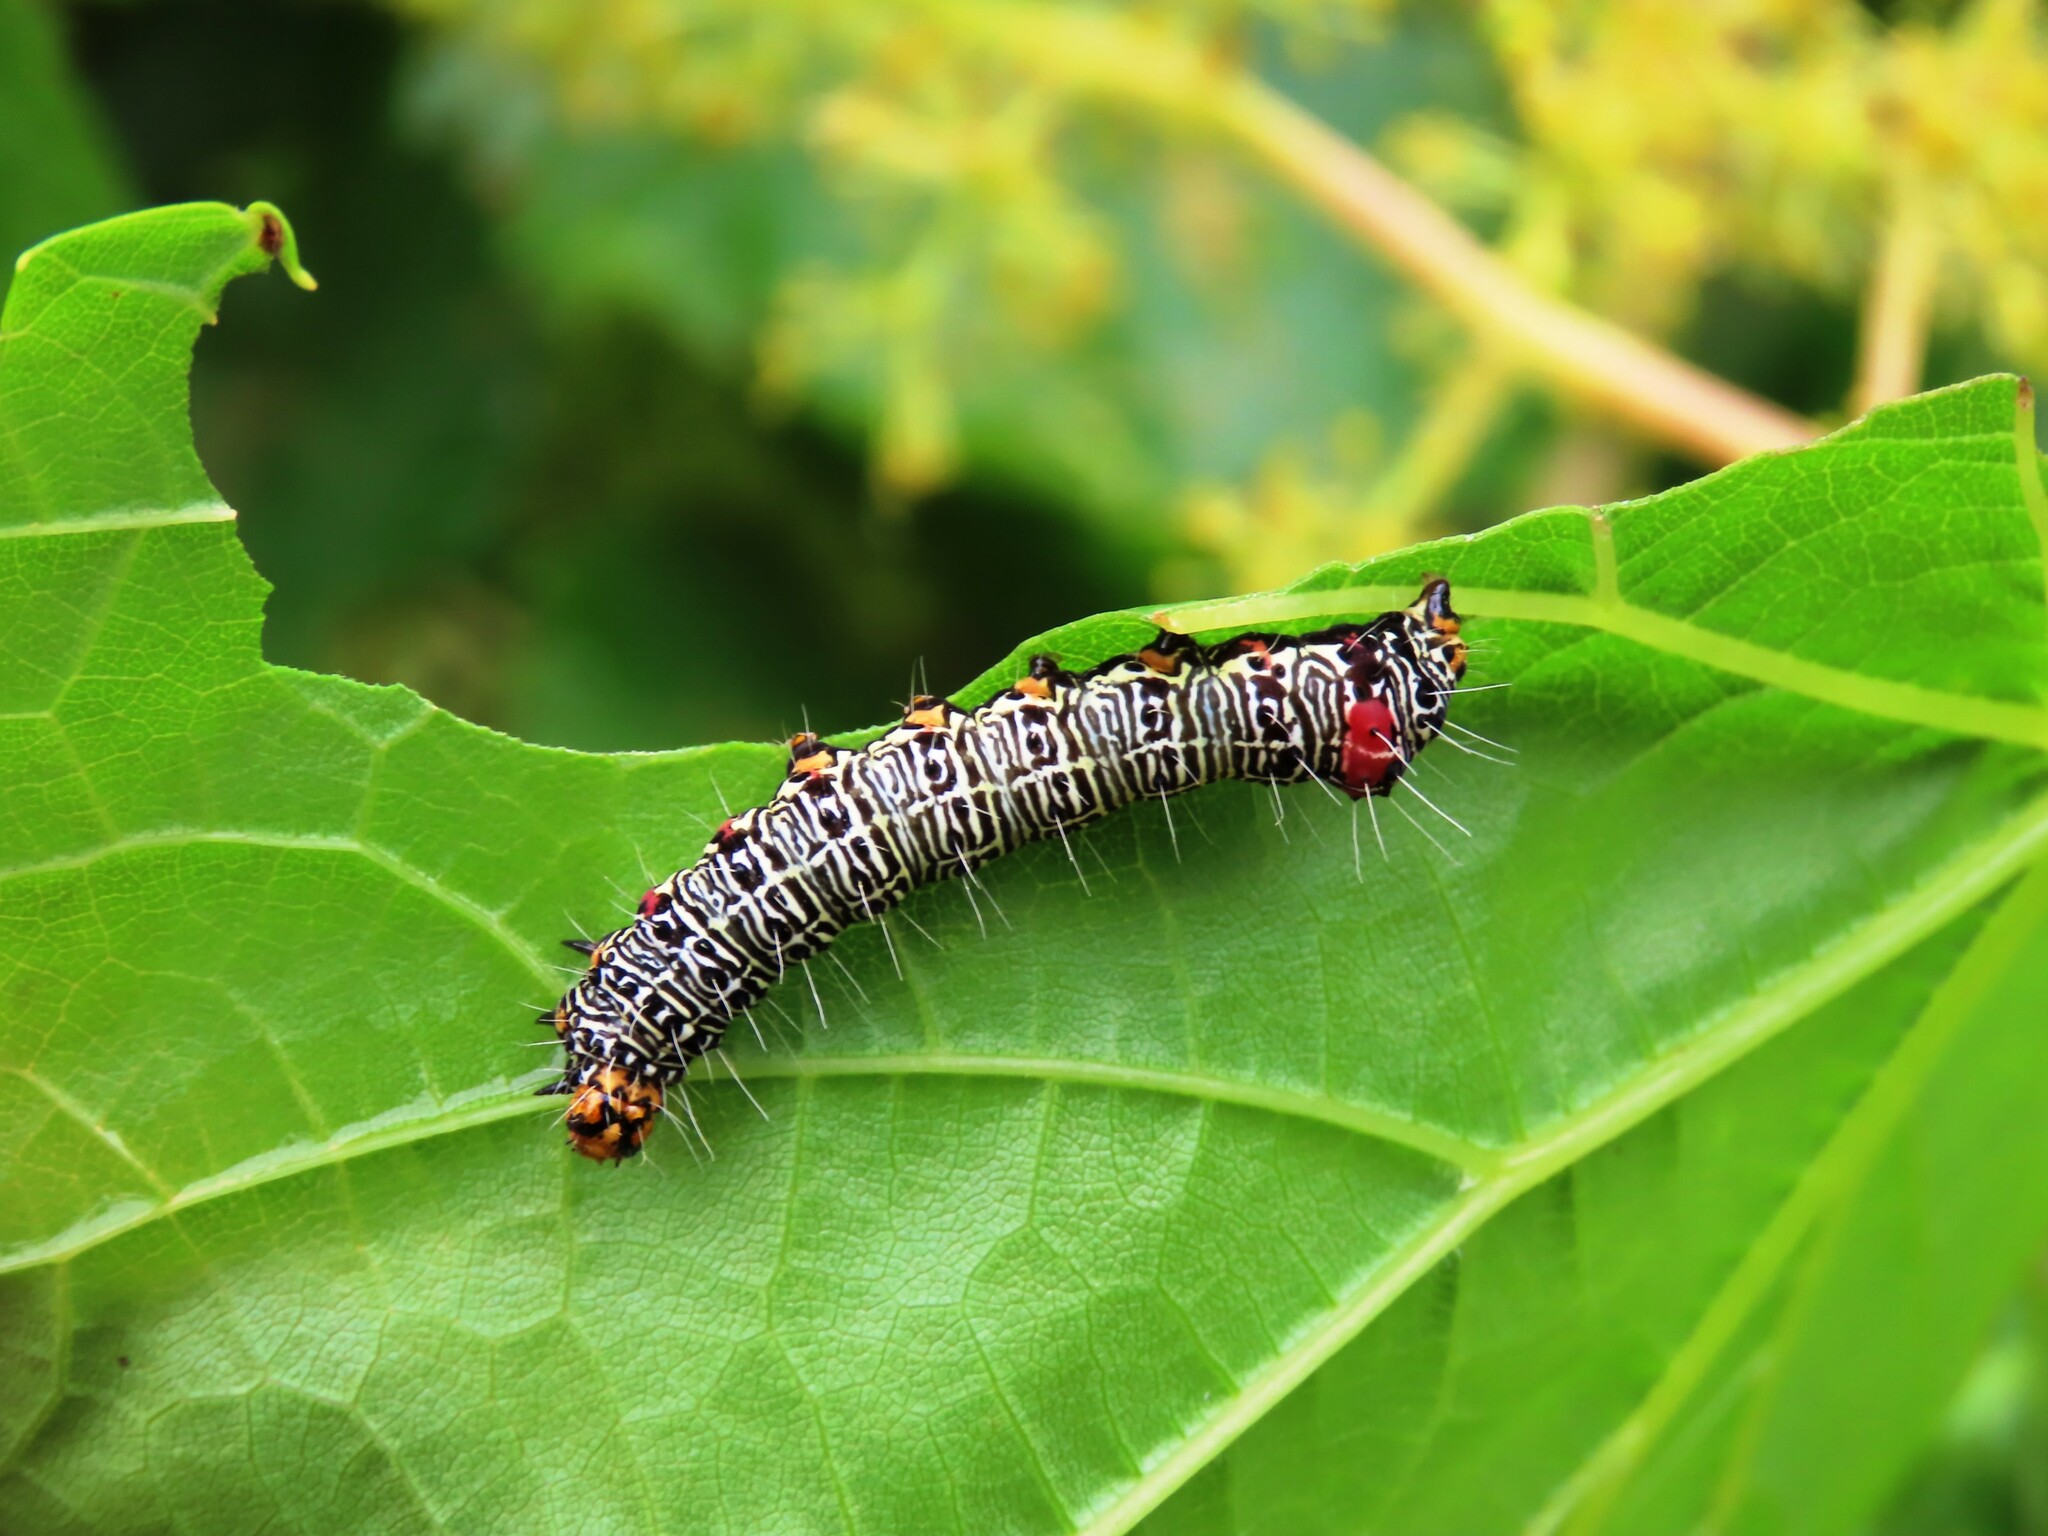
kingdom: Animalia
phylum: Arthropoda
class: Insecta
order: Lepidoptera
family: Noctuidae
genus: Phalaenoides
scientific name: Phalaenoides glycinae
